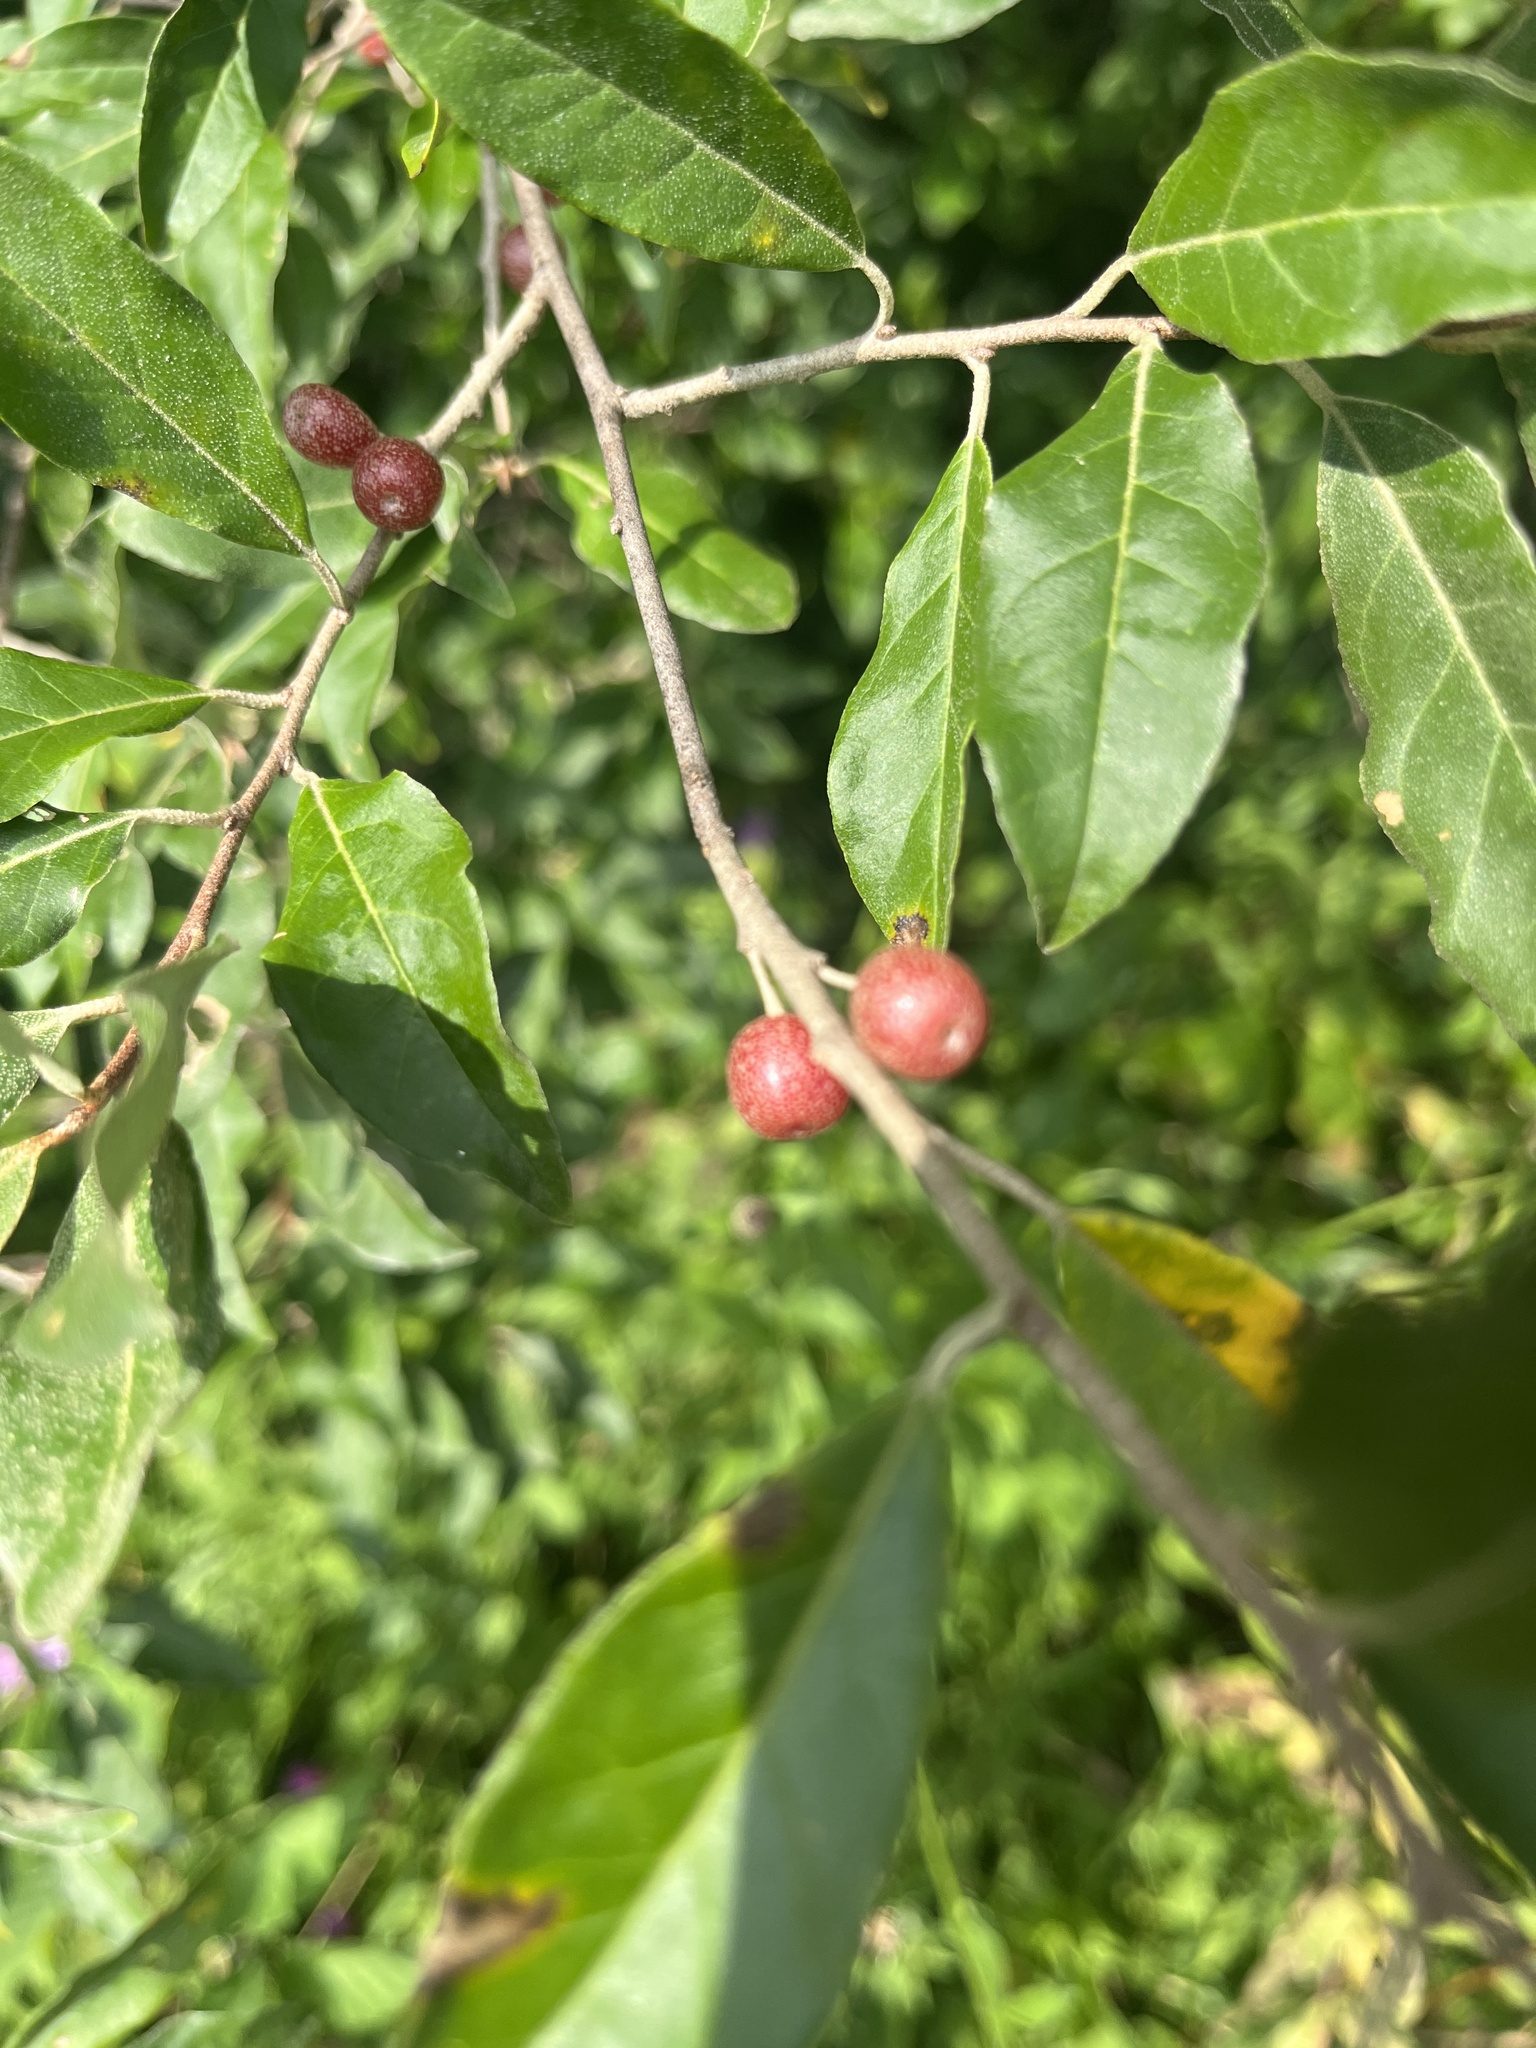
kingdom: Plantae
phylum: Tracheophyta
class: Magnoliopsida
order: Rosales
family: Elaeagnaceae
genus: Elaeagnus
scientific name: Elaeagnus umbellata
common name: Autumn olive
